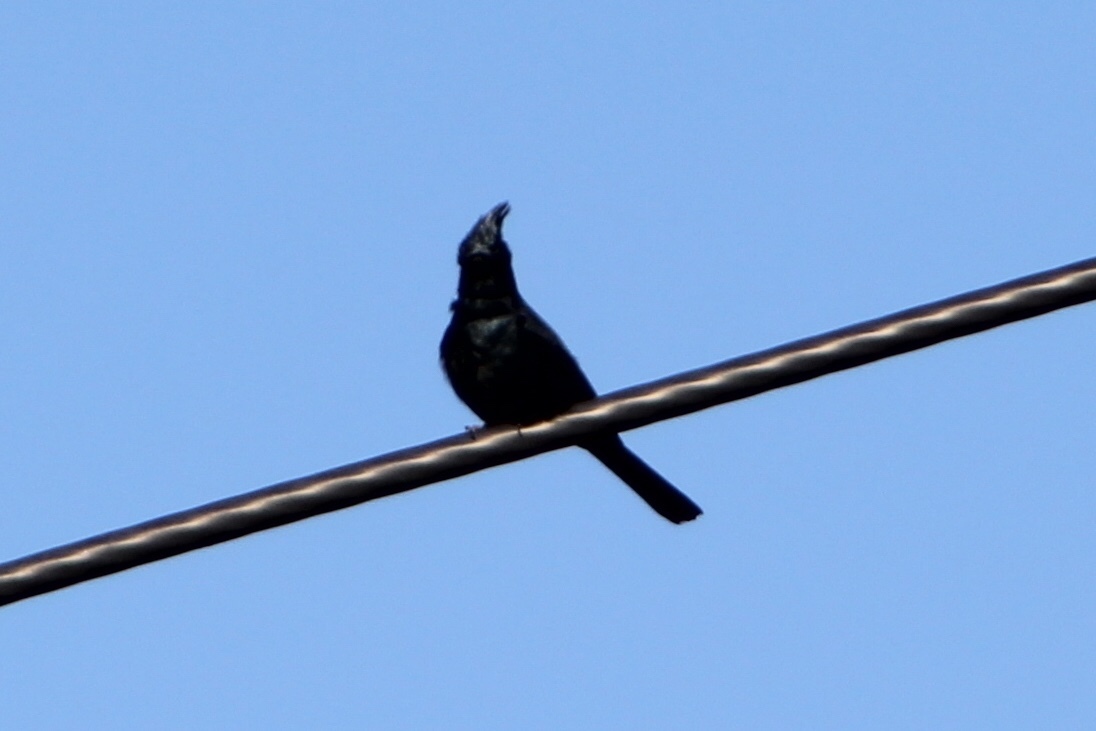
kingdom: Animalia
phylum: Chordata
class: Aves
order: Passeriformes
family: Ptilogonatidae
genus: Phainopepla
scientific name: Phainopepla nitens
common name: Phainopepla
